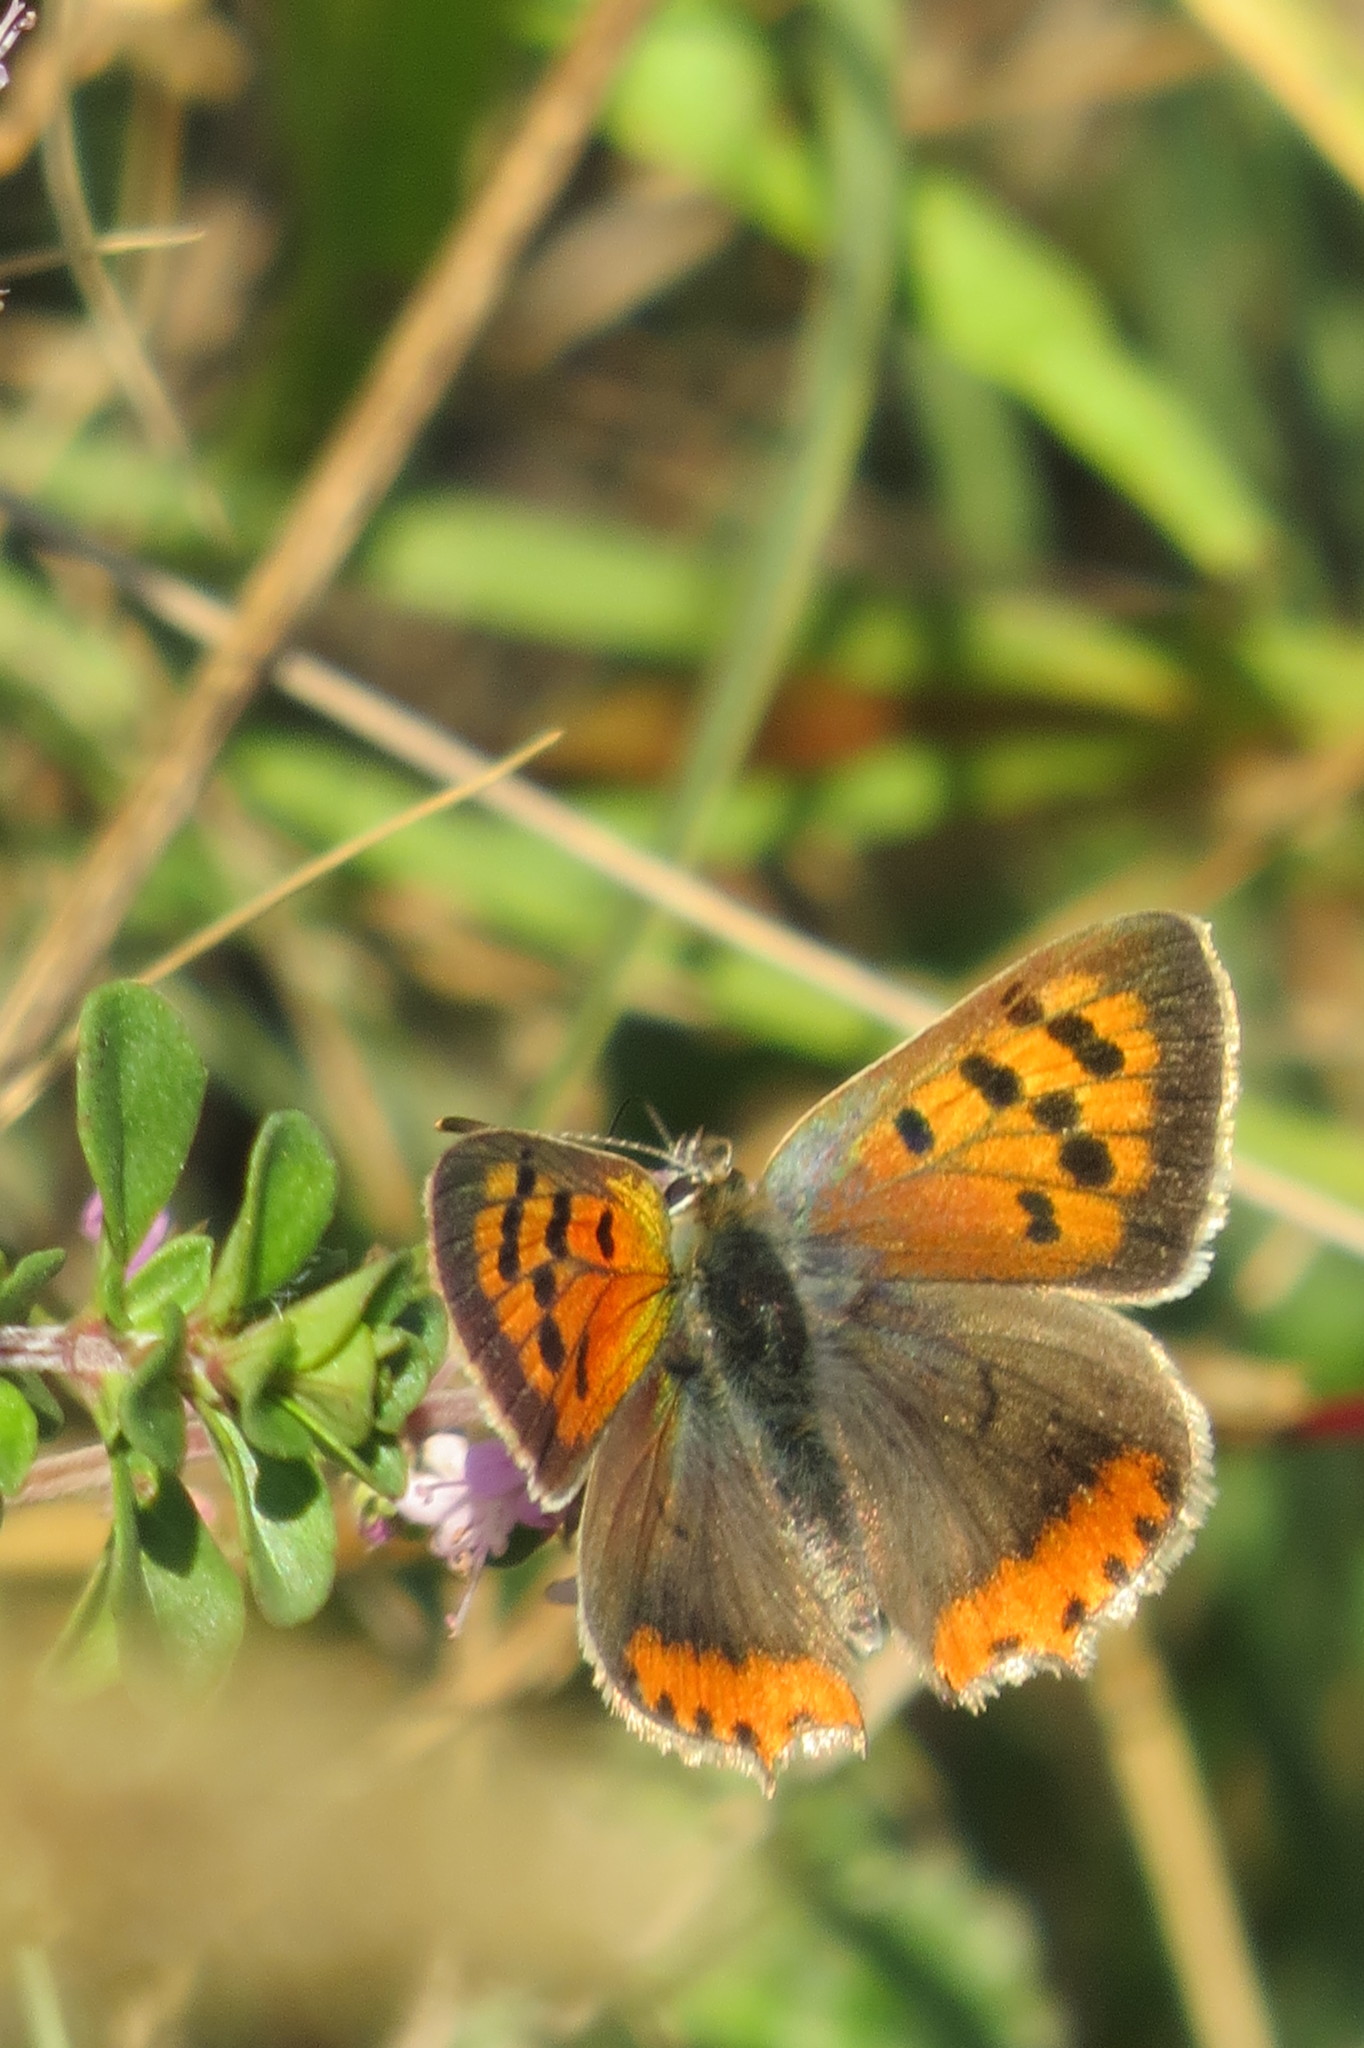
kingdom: Animalia
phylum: Arthropoda
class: Insecta
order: Lepidoptera
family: Lycaenidae
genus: Lycaena
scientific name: Lycaena phlaeas
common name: Small copper
